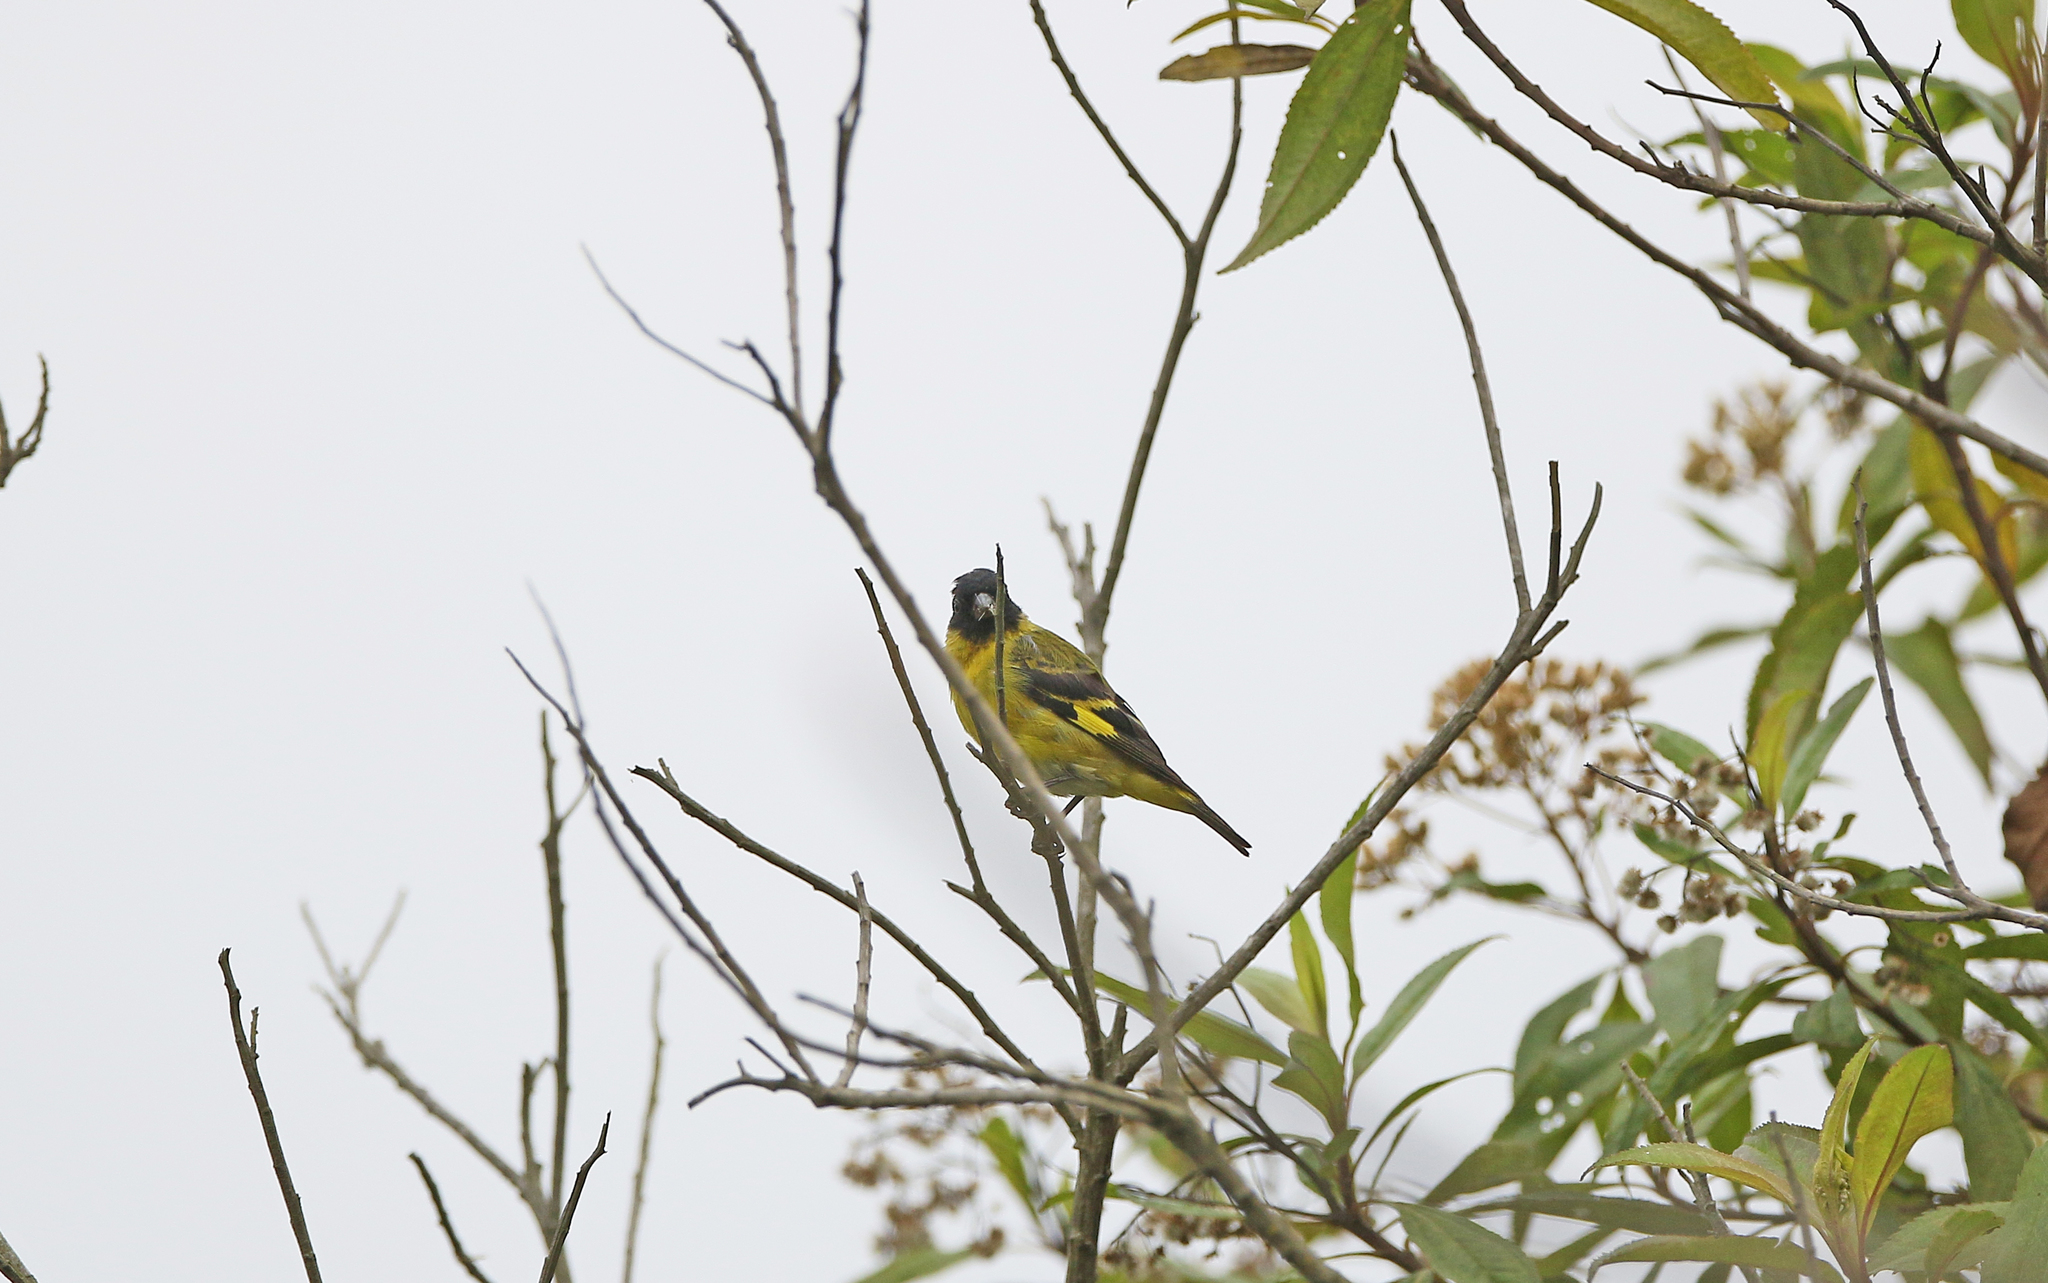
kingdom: Animalia
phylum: Chordata
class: Aves
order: Passeriformes
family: Fringillidae
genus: Spinus
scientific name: Spinus magellanicus
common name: Hooded siskin
